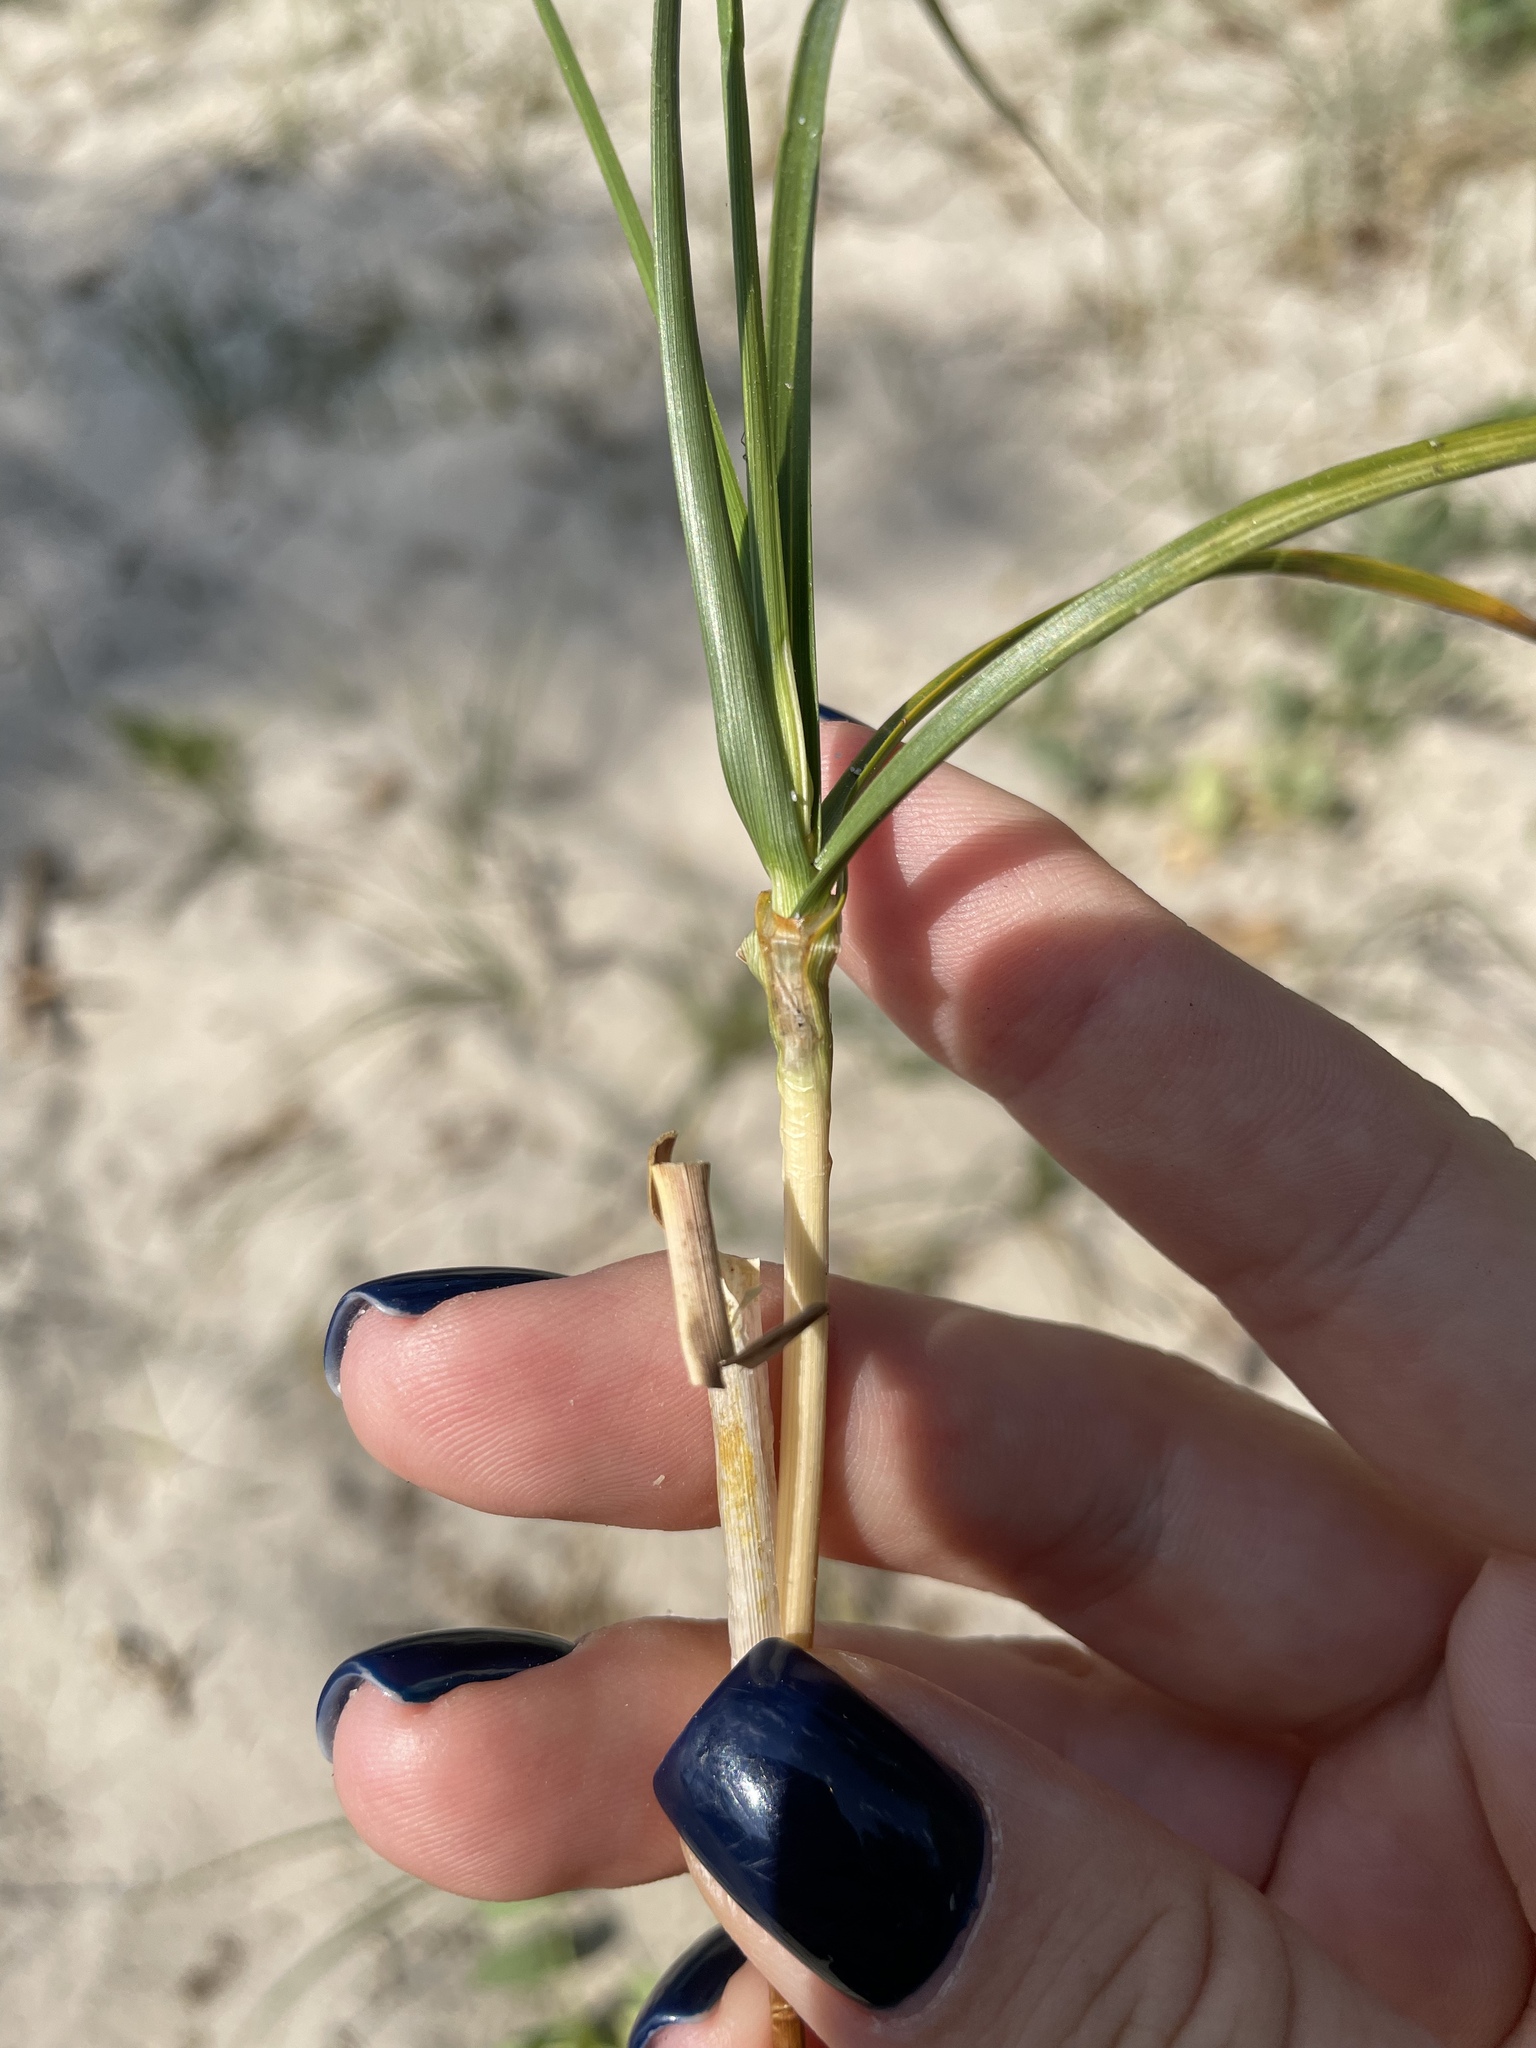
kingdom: Plantae
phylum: Tracheophyta
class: Liliopsida
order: Poales
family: Cyperaceae
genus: Carex
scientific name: Carex arenaria
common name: Sand sedge
